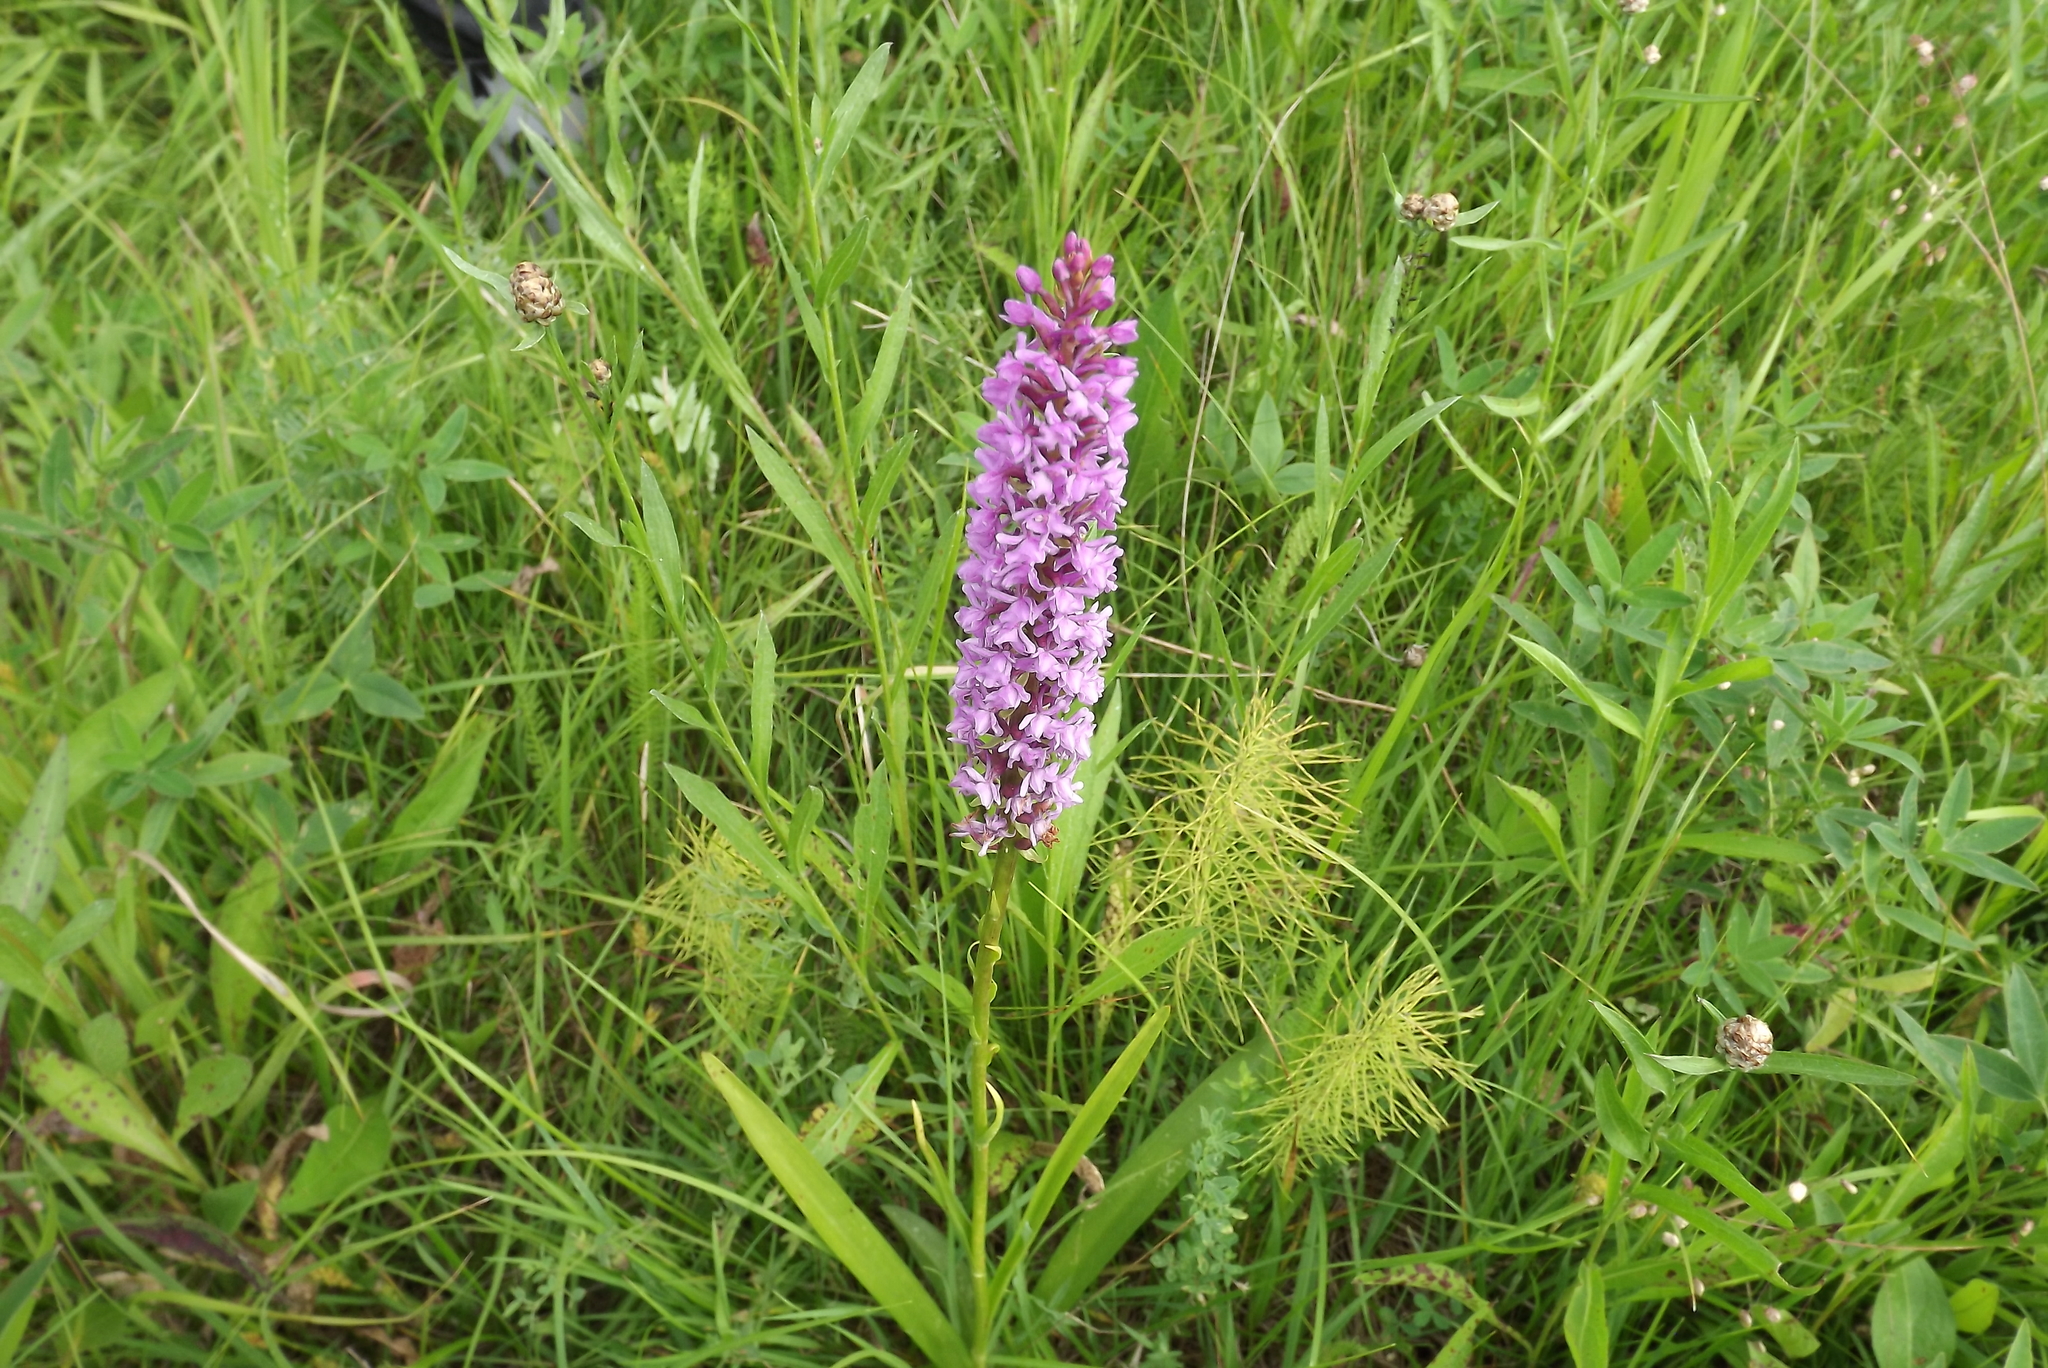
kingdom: Plantae
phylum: Tracheophyta
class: Liliopsida
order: Asparagales
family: Orchidaceae
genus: Gymnadenia
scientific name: Gymnadenia conopsea
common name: Fragrant orchid
